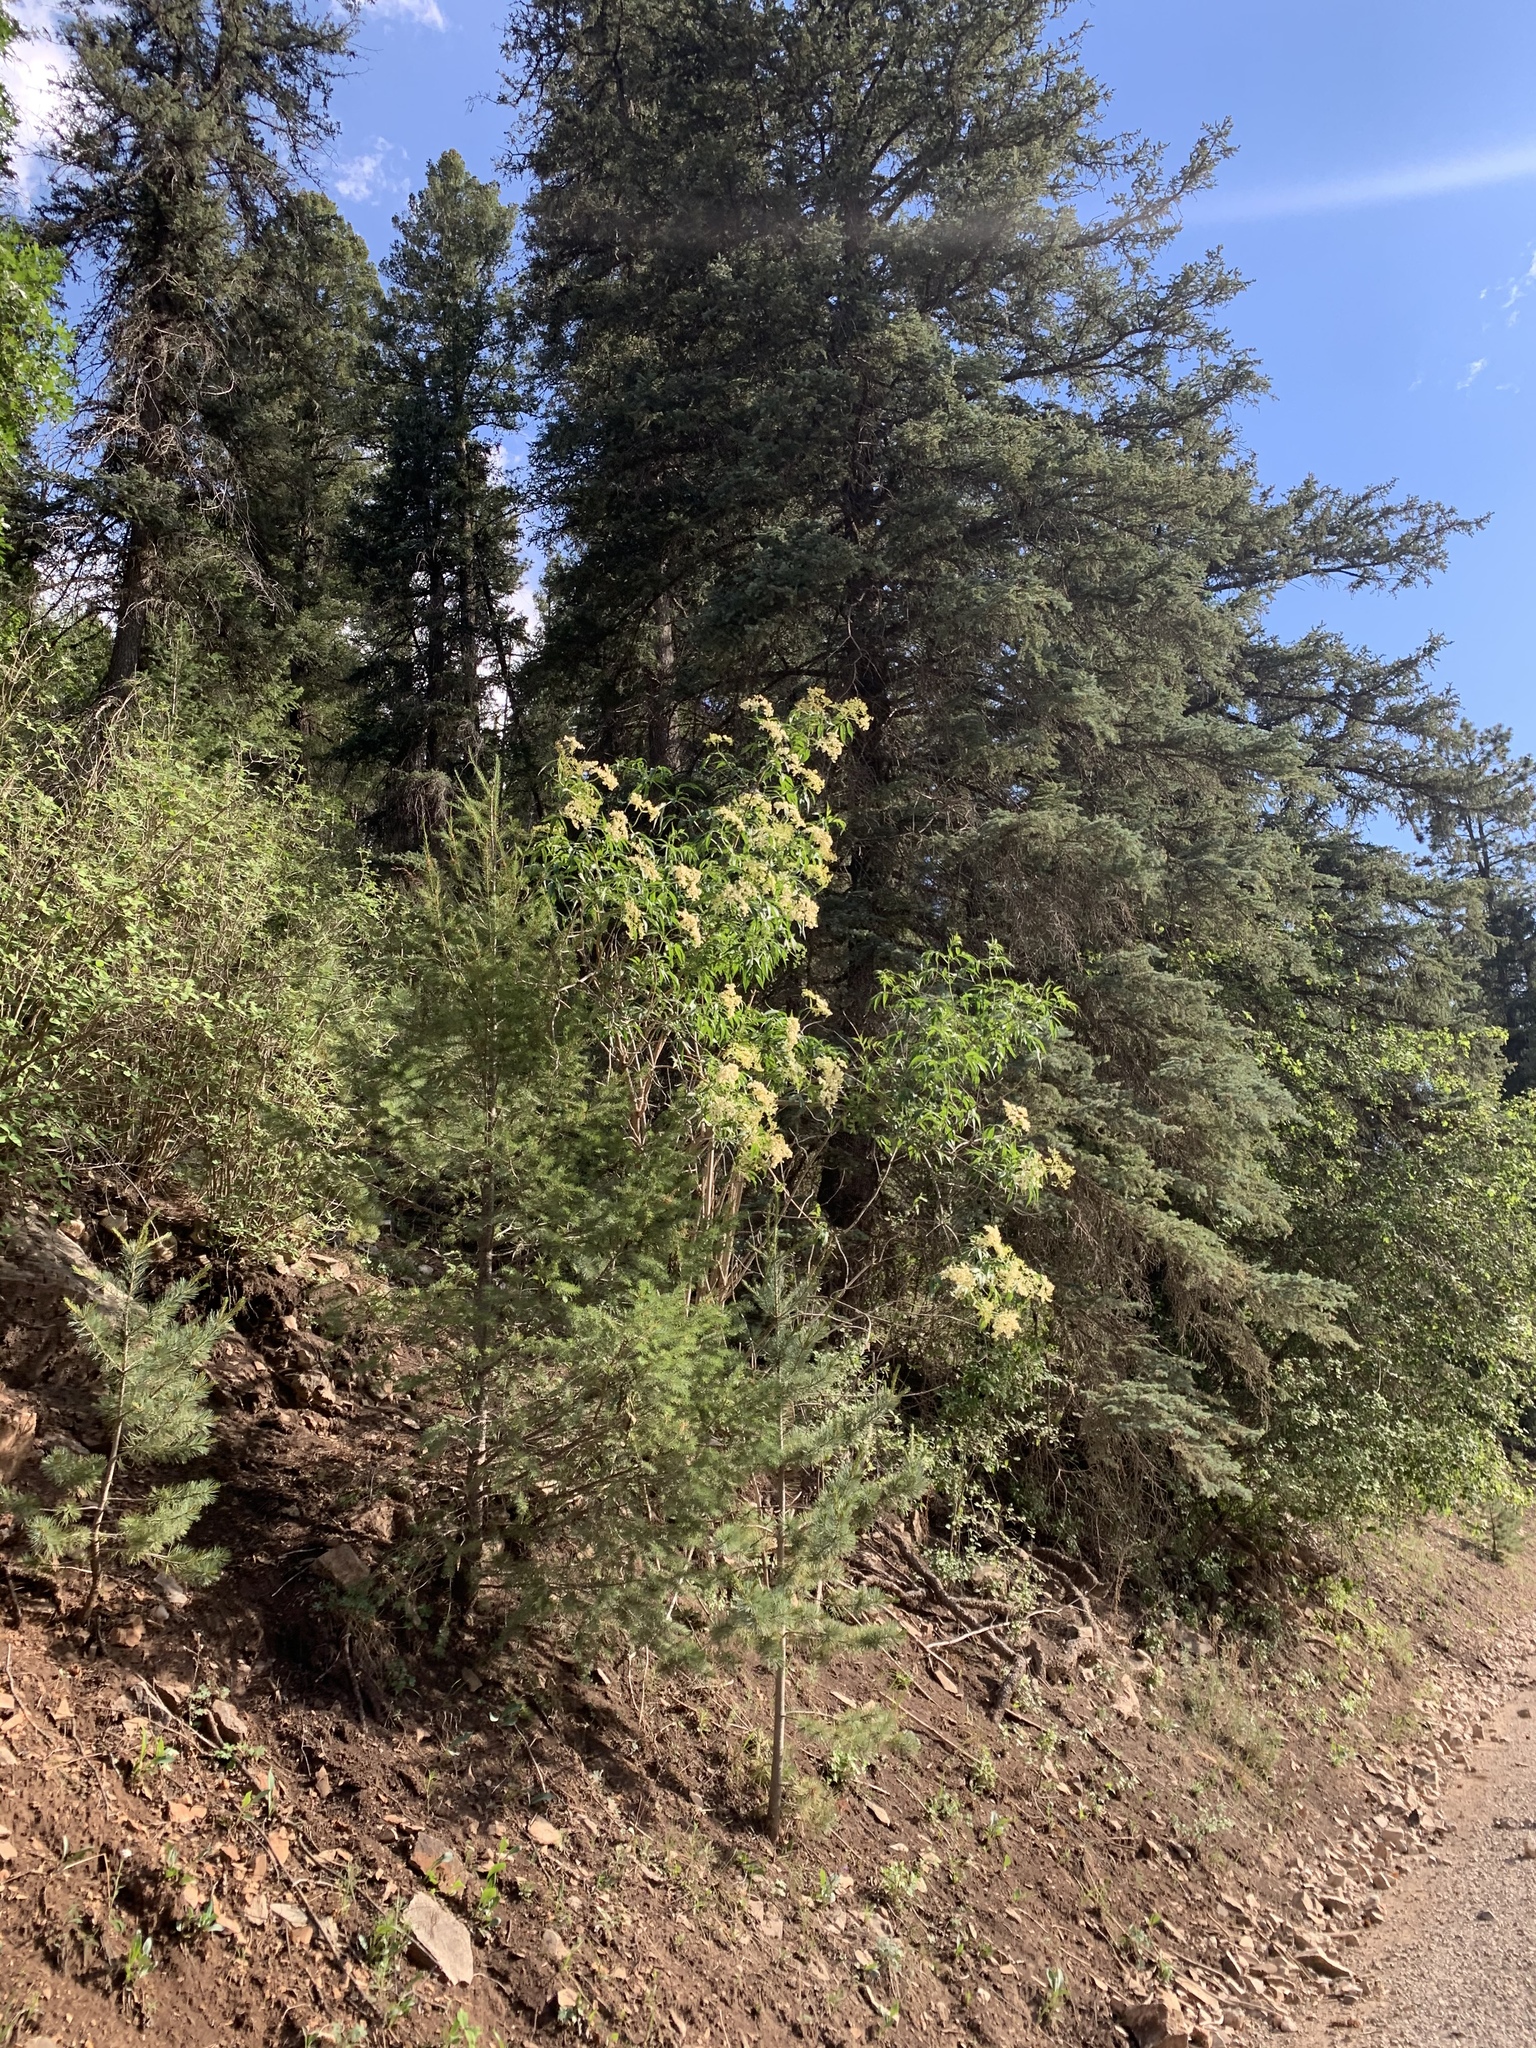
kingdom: Plantae
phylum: Tracheophyta
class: Magnoliopsida
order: Dipsacales
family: Viburnaceae
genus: Sambucus
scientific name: Sambucus cerulea
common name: Blue elder
